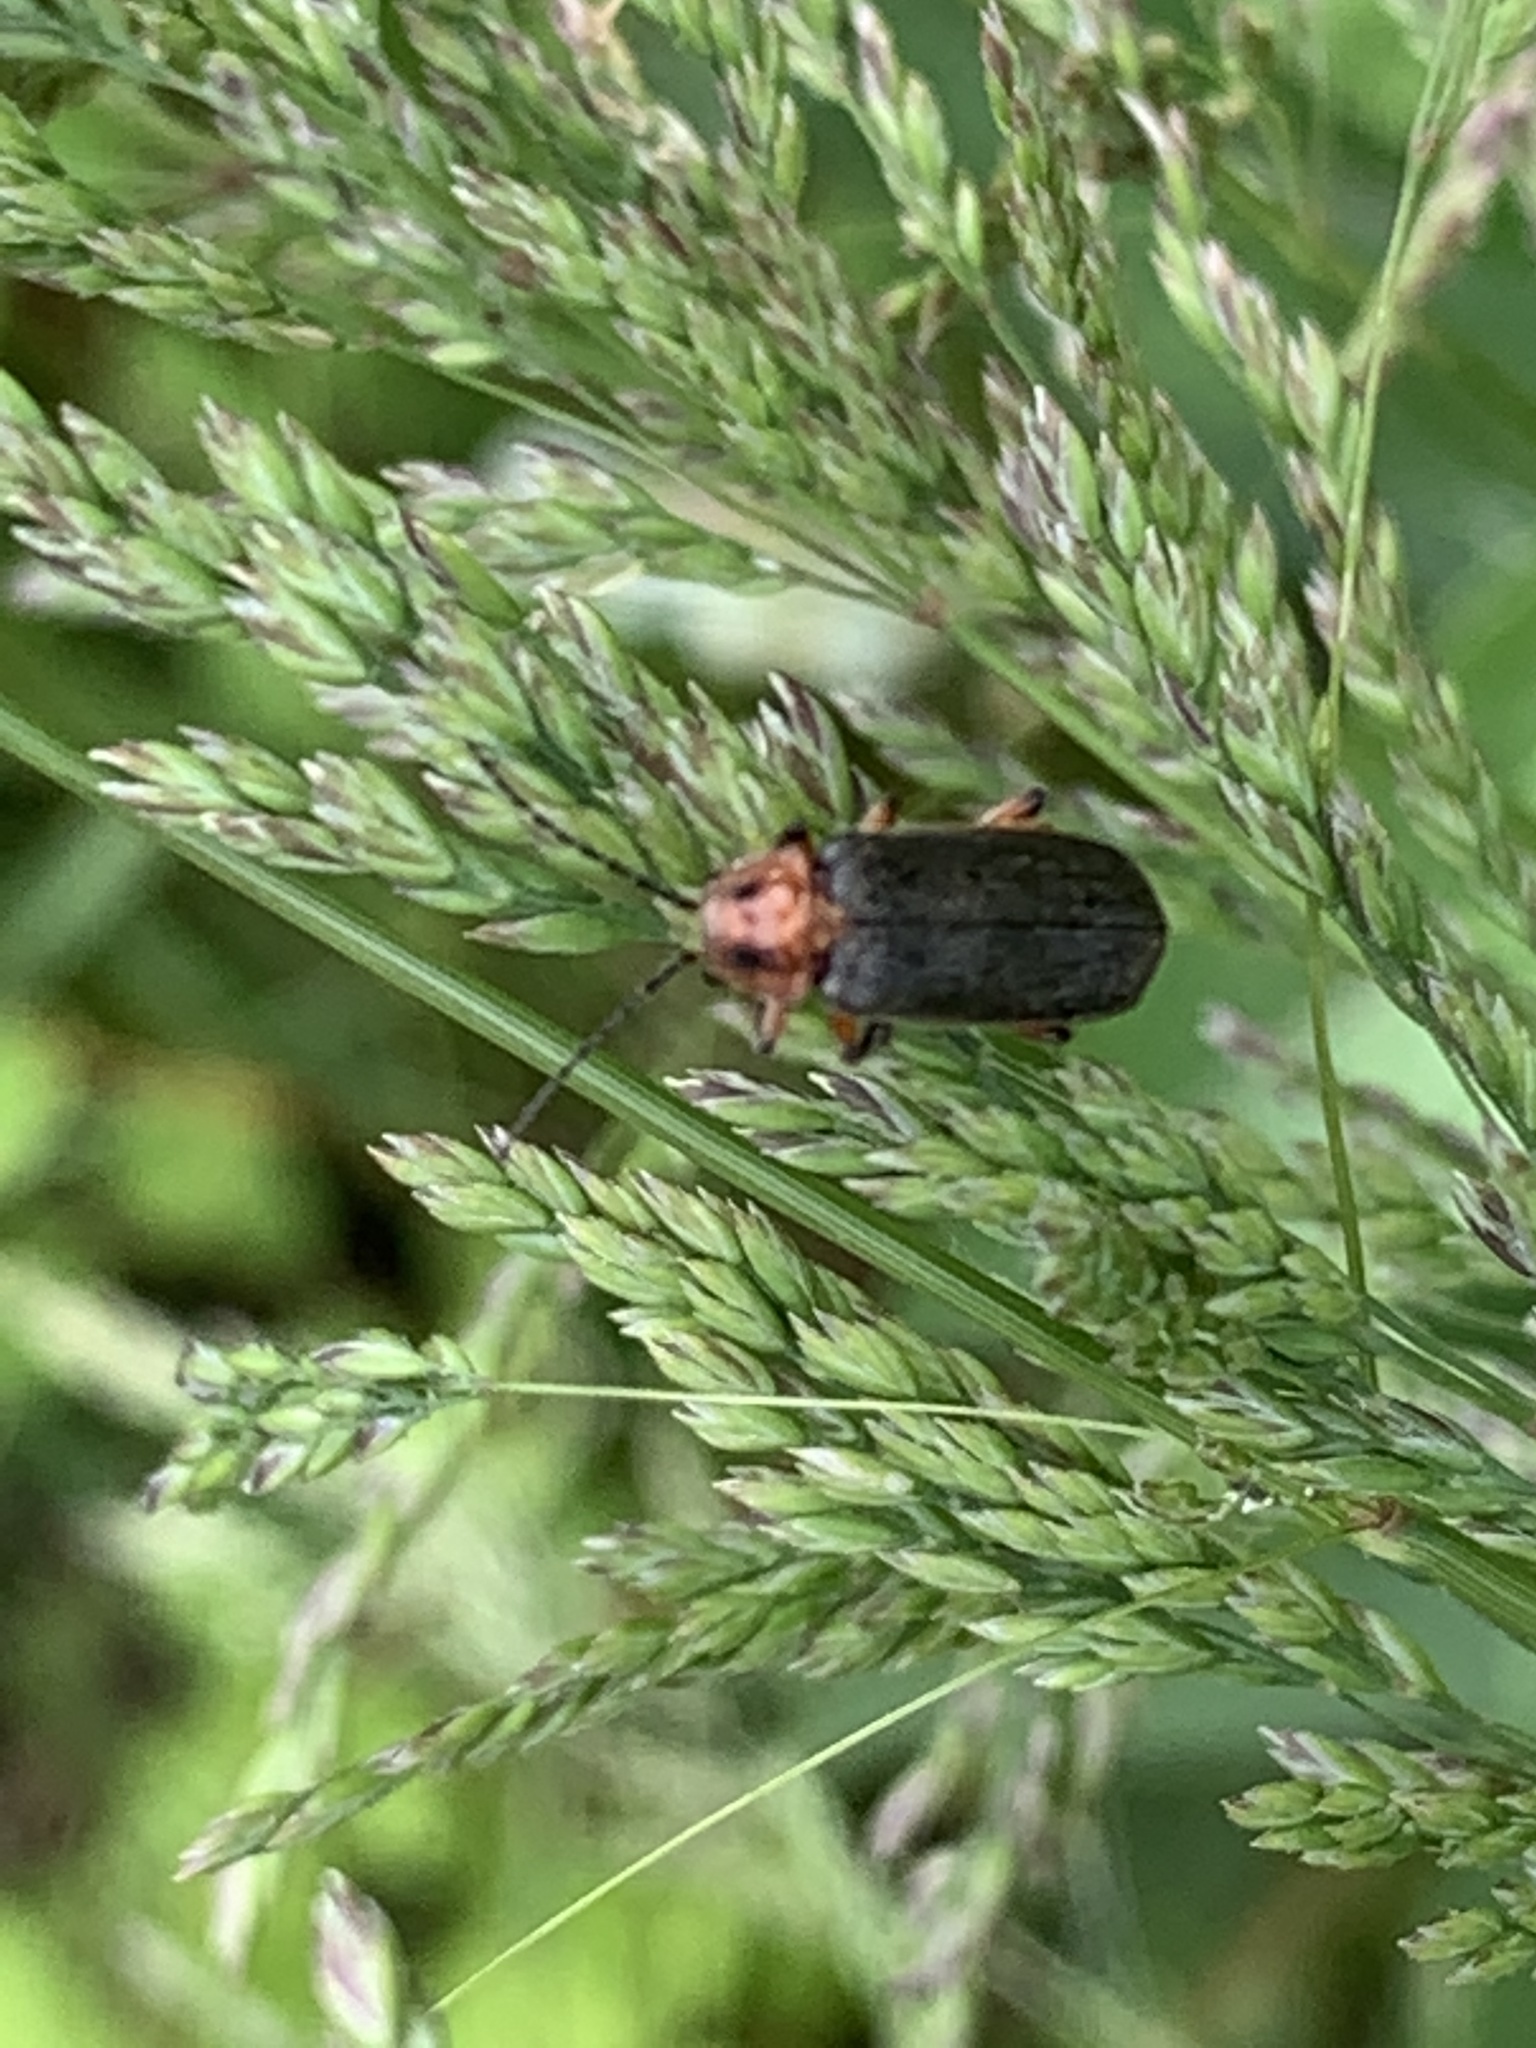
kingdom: Animalia
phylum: Arthropoda
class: Insecta
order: Coleoptera
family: Cantharidae
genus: Atalantycha
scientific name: Atalantycha bilineata
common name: Two-lined leatherwing
